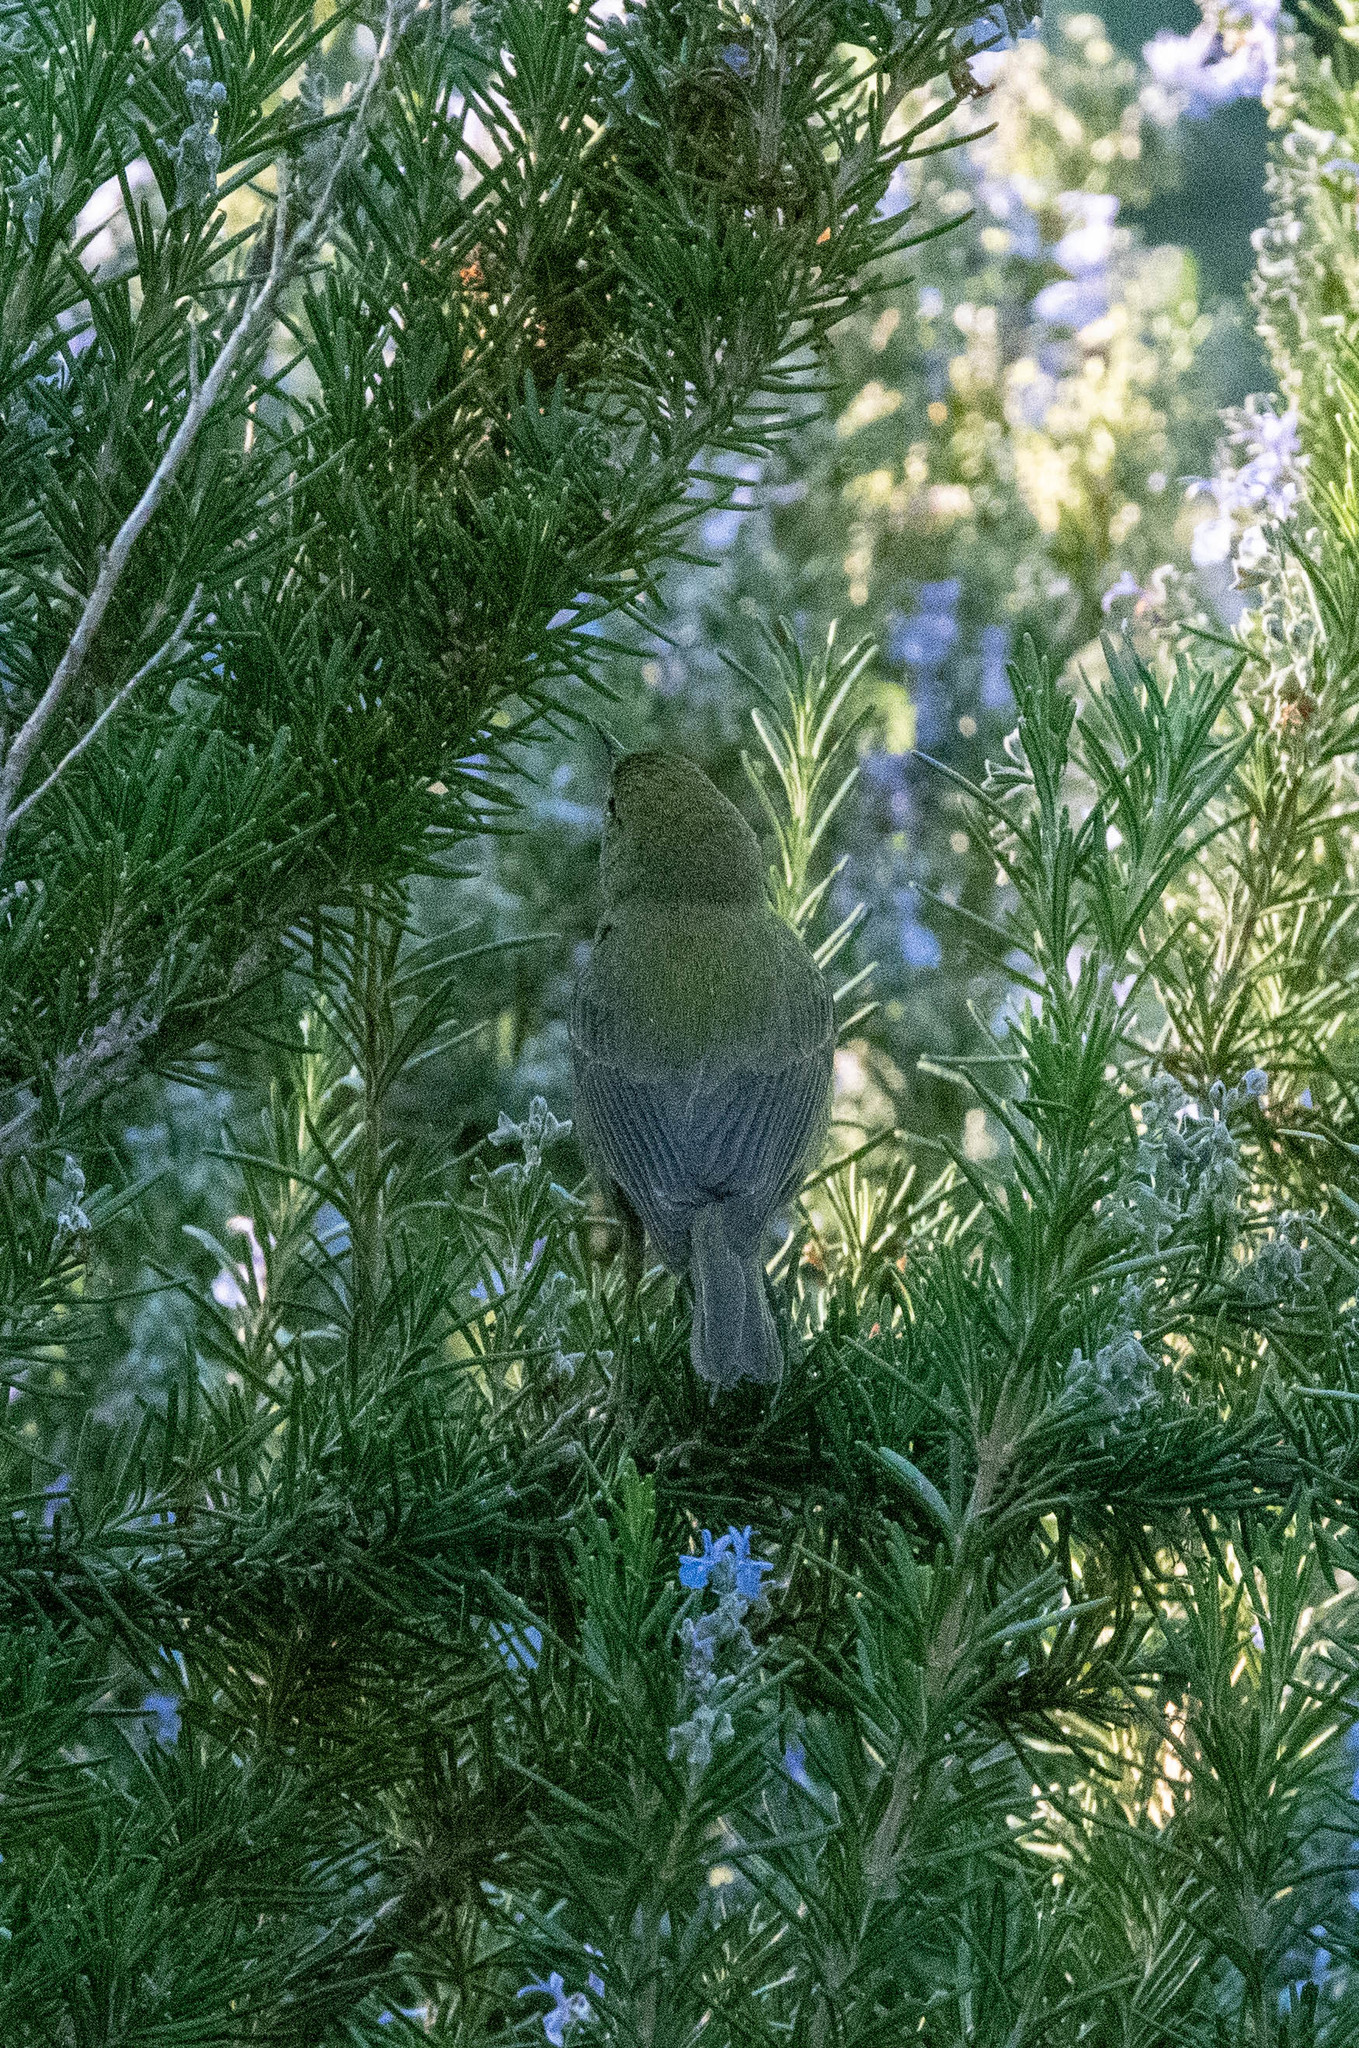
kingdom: Animalia
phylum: Chordata
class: Aves
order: Passeriformes
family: Parulidae
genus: Leiothlypis
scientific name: Leiothlypis celata
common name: Orange-crowned warbler
